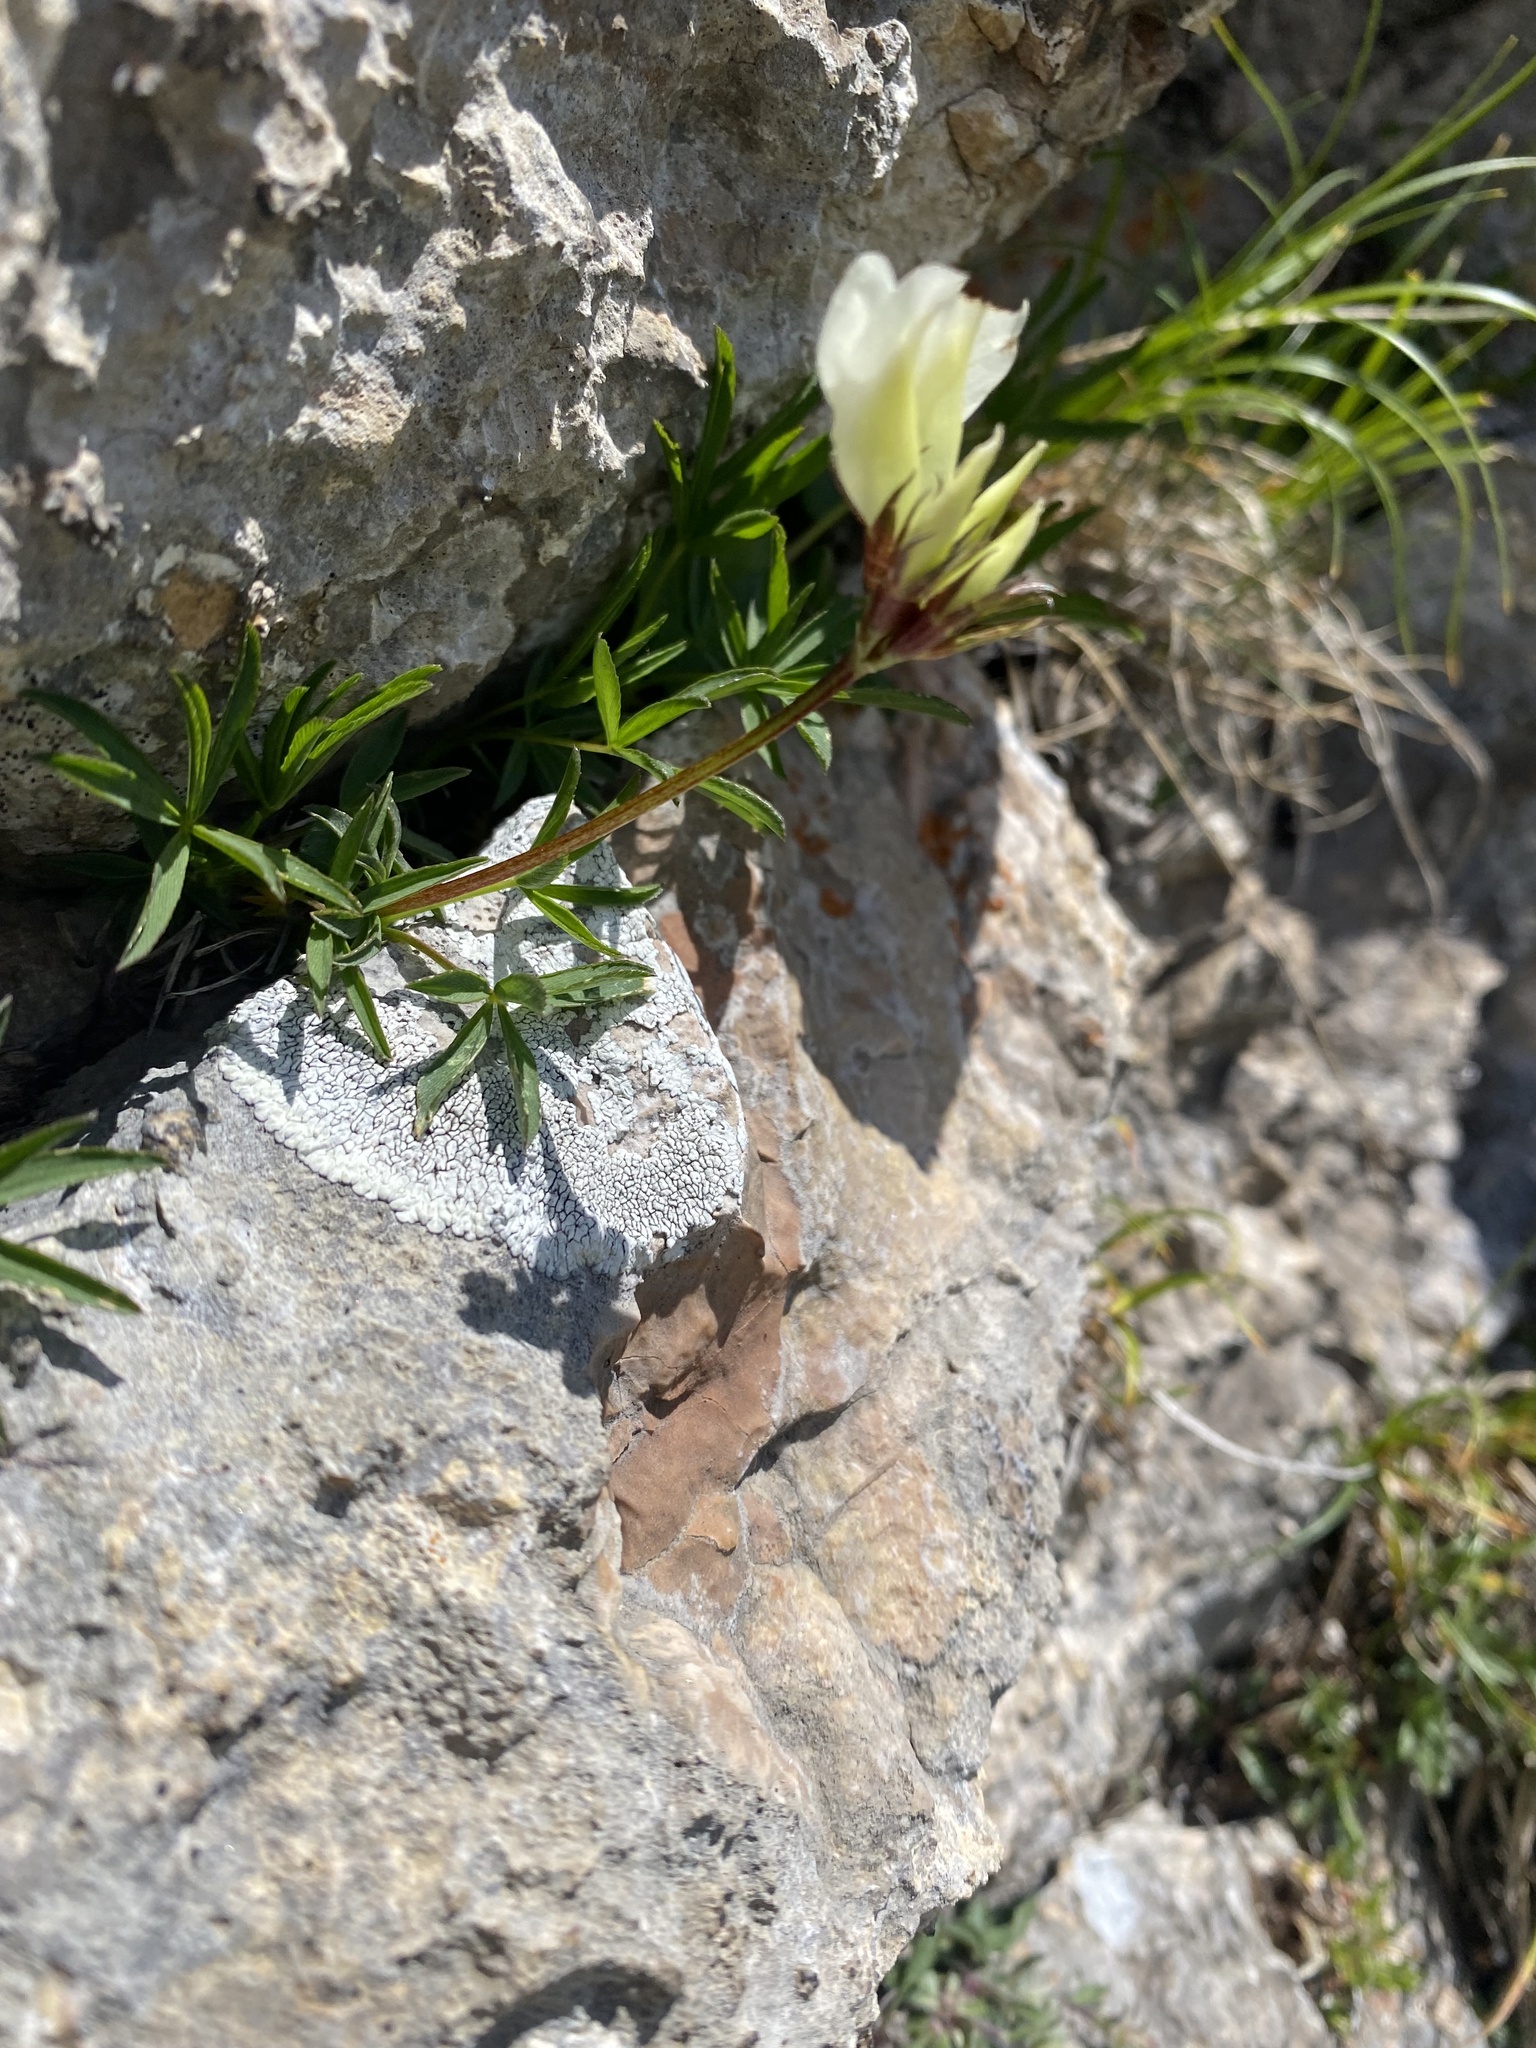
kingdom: Plantae
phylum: Tracheophyta
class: Magnoliopsida
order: Fabales
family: Fabaceae
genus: Trifolium
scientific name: Trifolium polyphyllum
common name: Many-leaf clover
